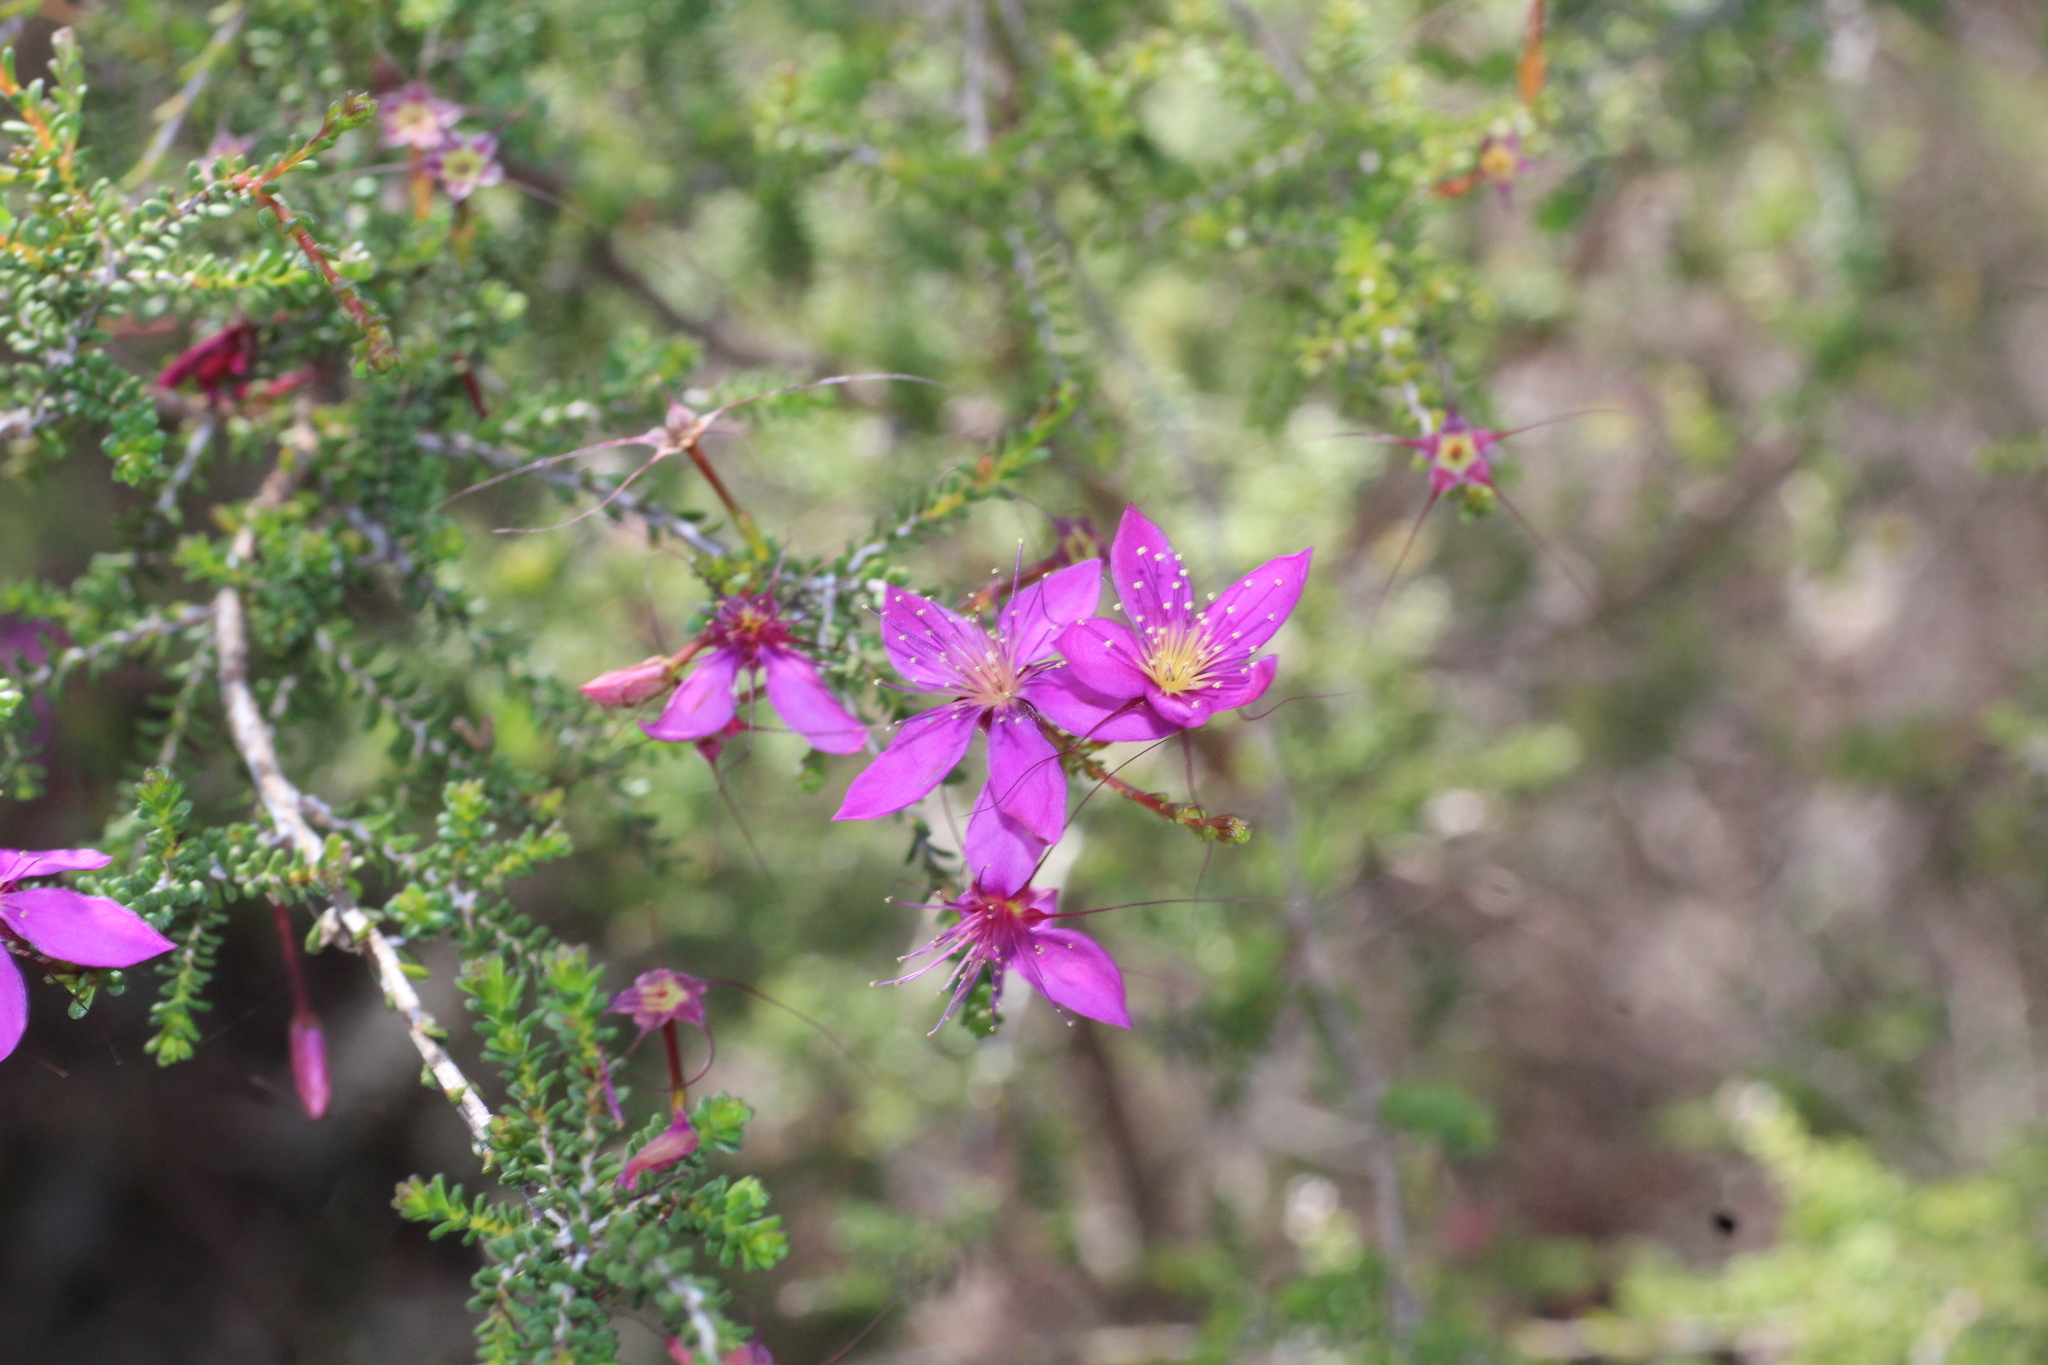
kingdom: Plantae
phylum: Tracheophyta
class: Magnoliopsida
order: Myrtales
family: Myrtaceae
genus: Calytrix
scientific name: Calytrix fraseri
